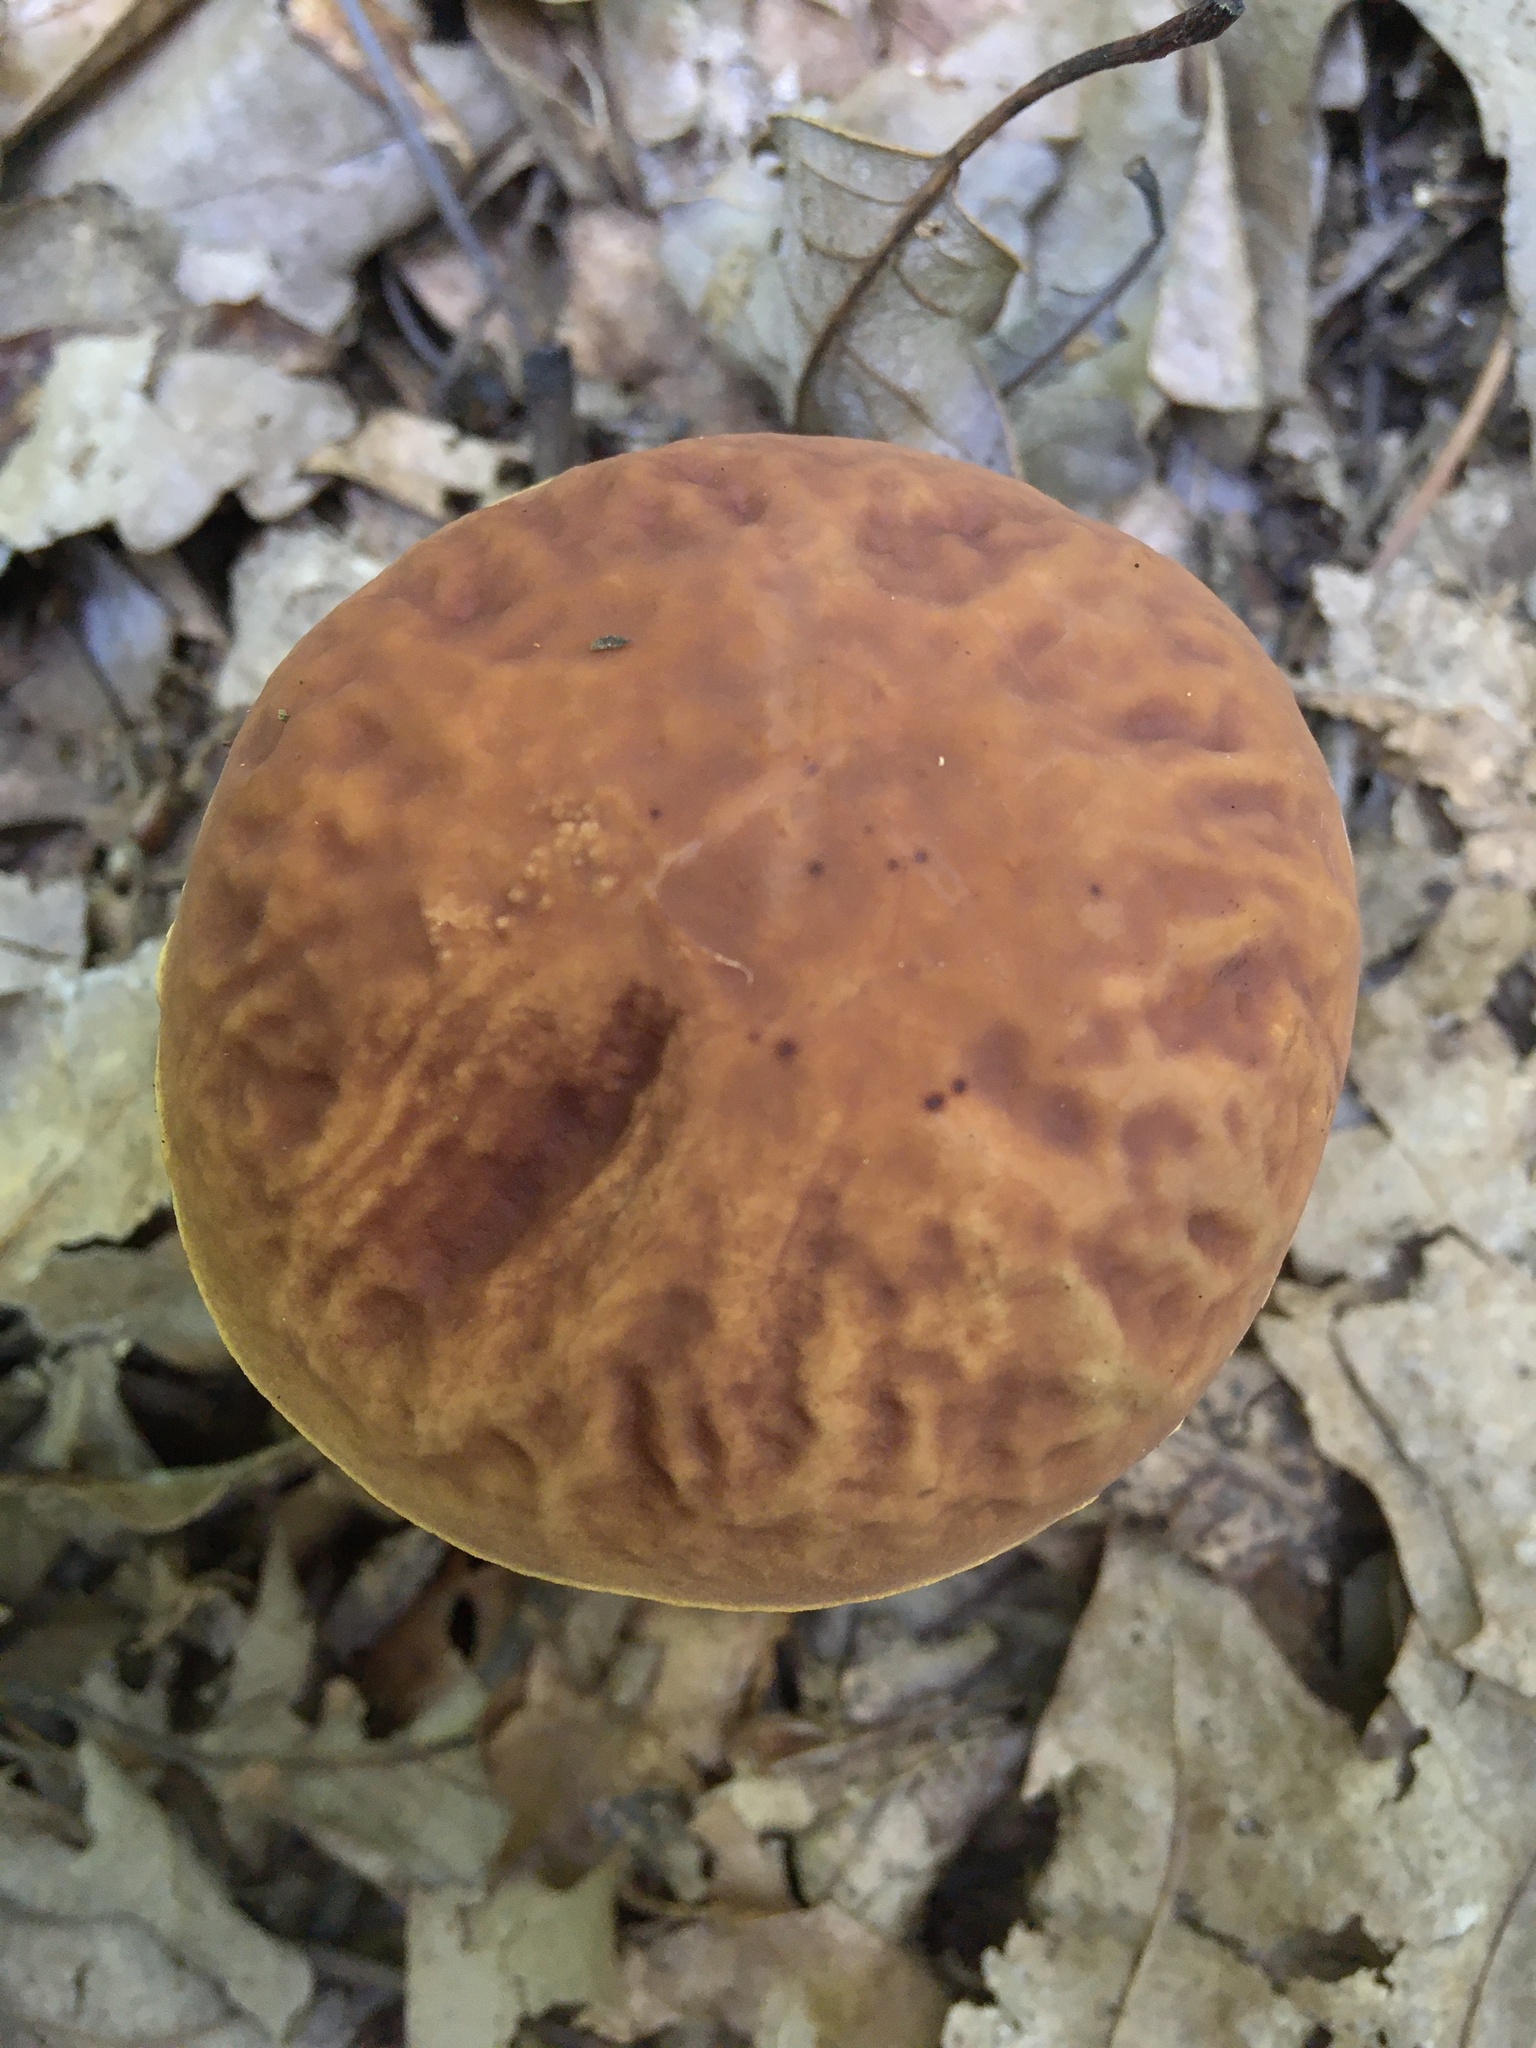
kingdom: Fungi
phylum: Basidiomycota
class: Agaricomycetes
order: Boletales
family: Boletaceae
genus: Hemileccinum
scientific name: Hemileccinum rubropunctum
